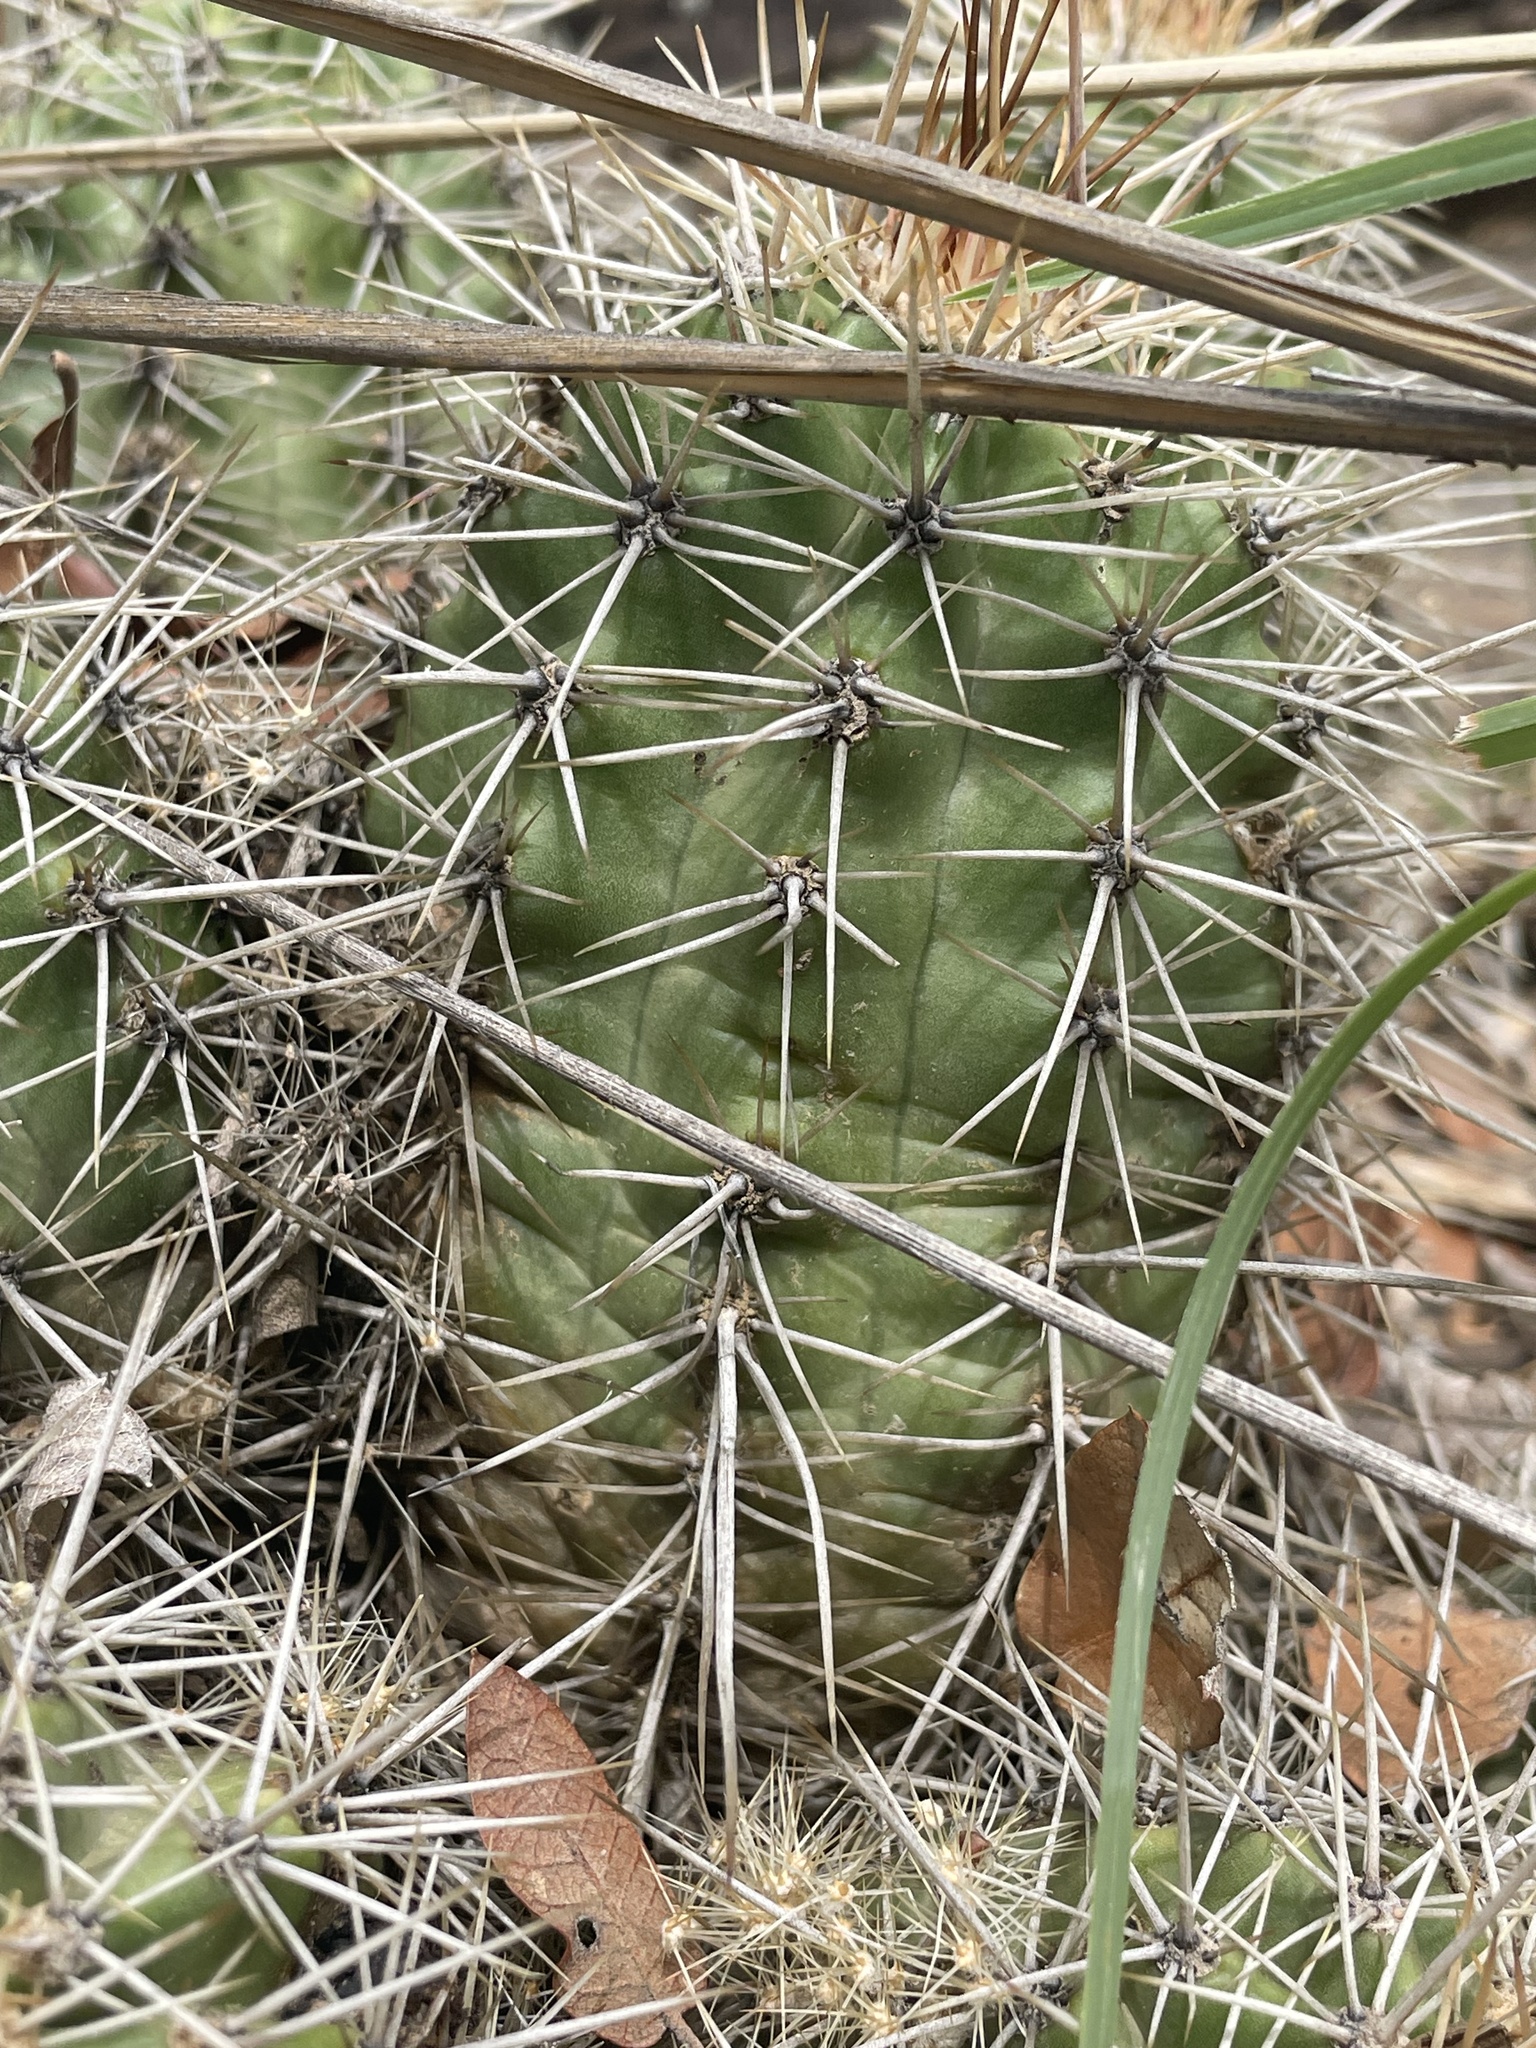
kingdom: Plantae
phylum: Tracheophyta
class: Magnoliopsida
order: Caryophyllales
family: Cactaceae
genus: Echinocereus
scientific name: Echinocereus bakeri
